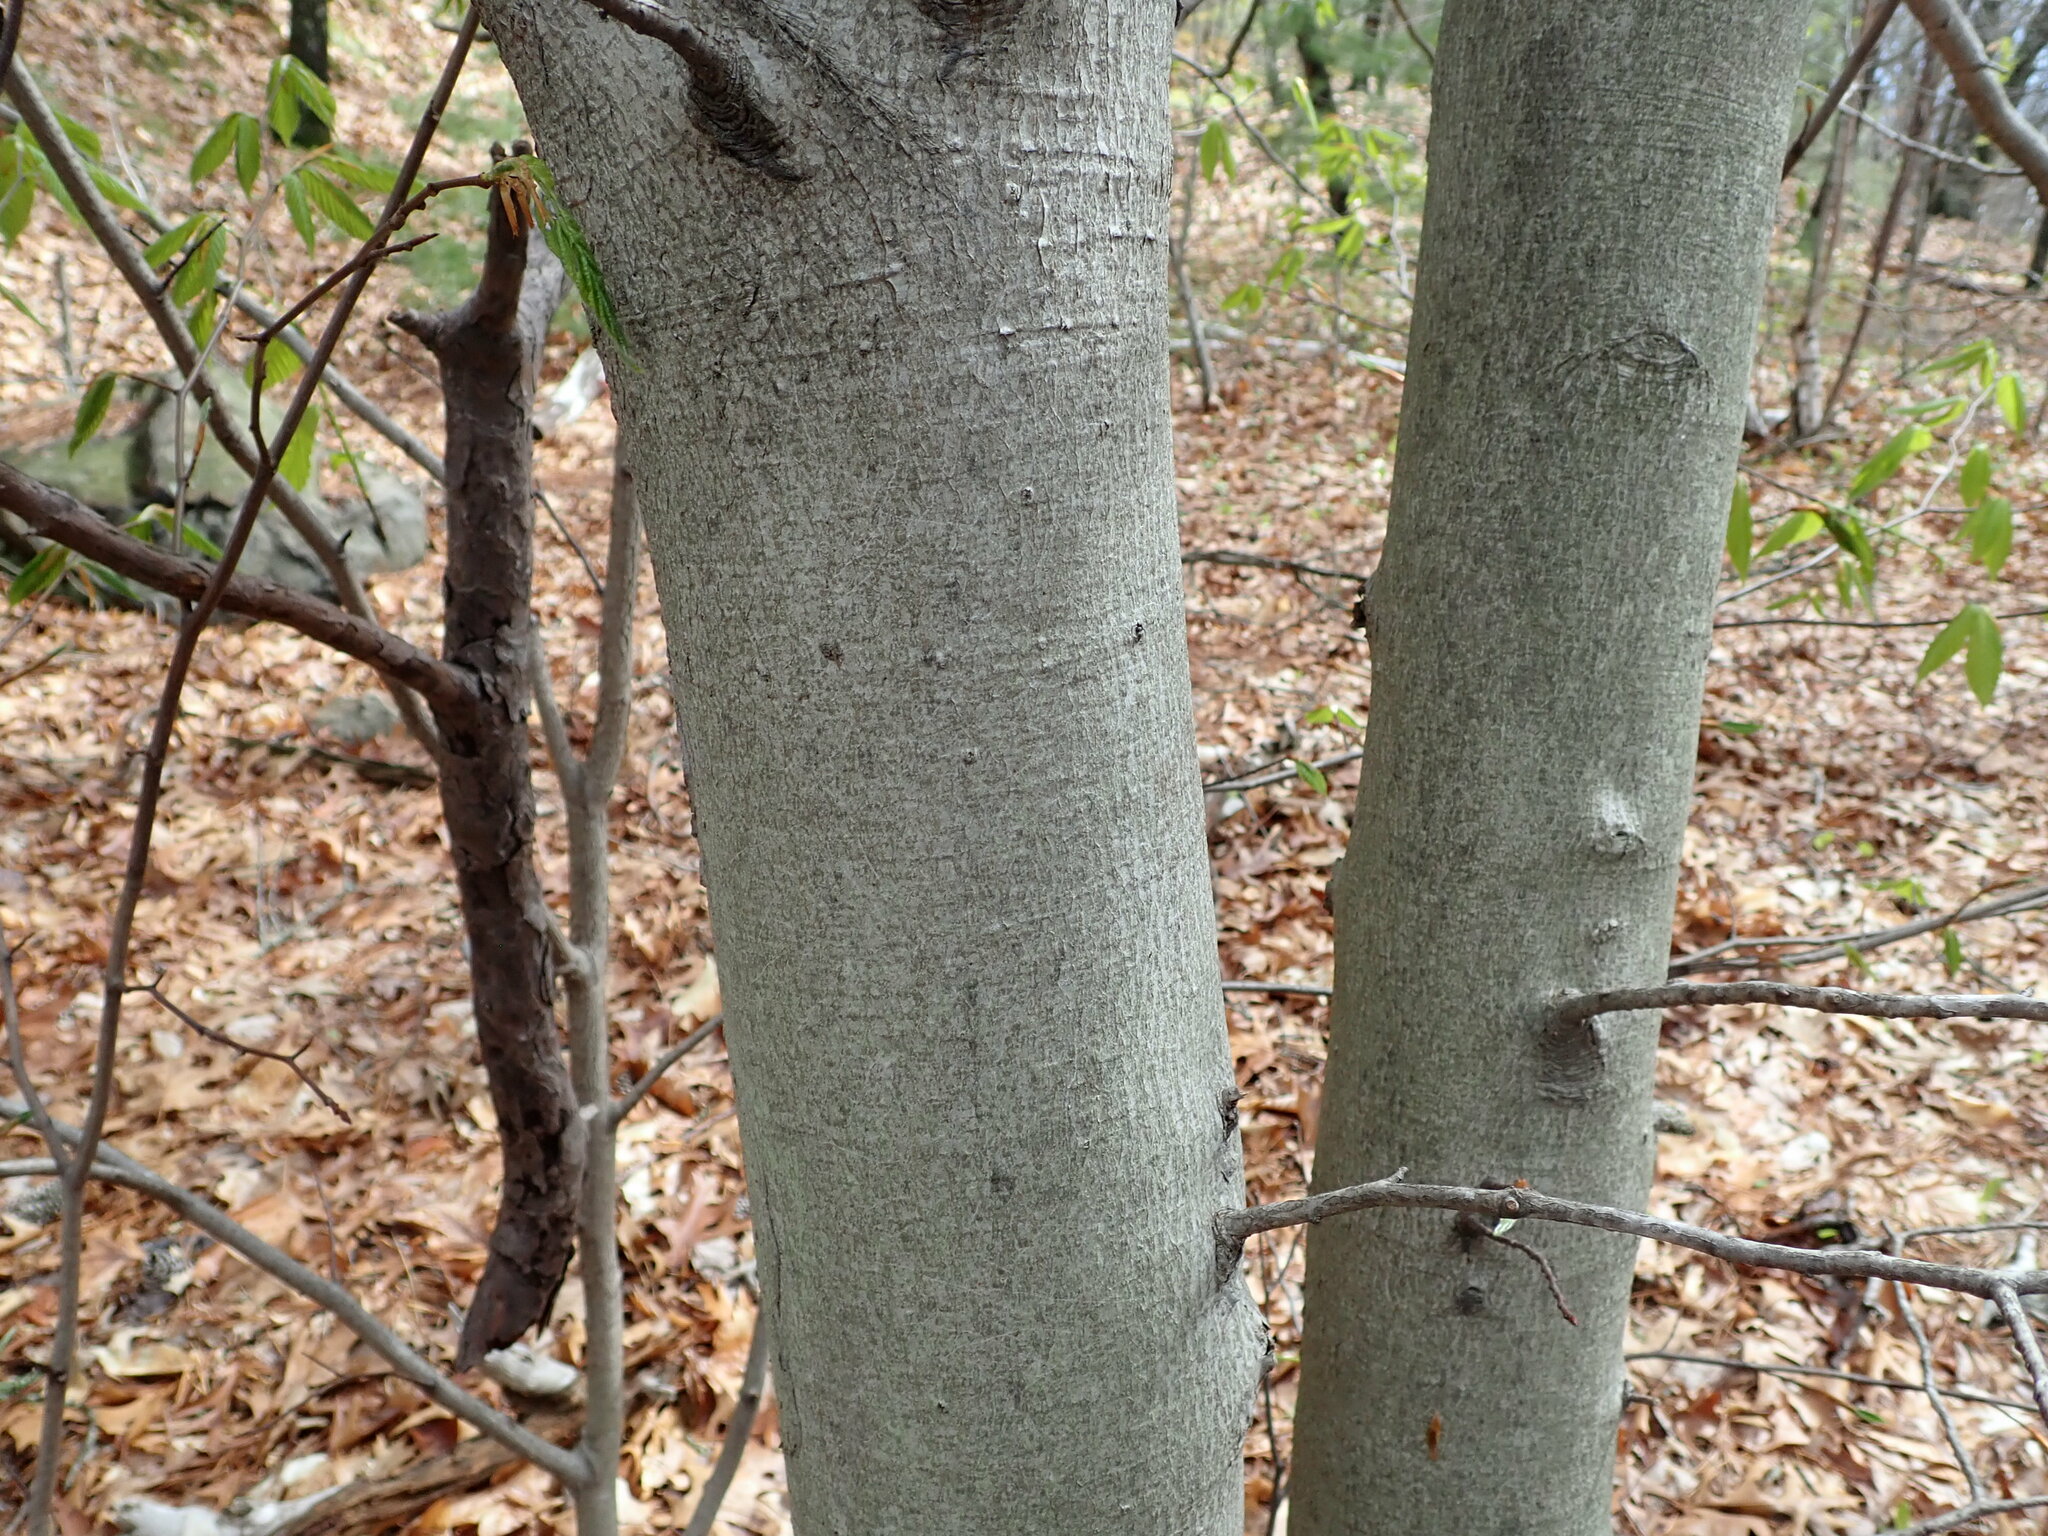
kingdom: Plantae
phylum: Tracheophyta
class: Magnoliopsida
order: Fagales
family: Fagaceae
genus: Fagus
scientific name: Fagus grandifolia
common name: American beech
